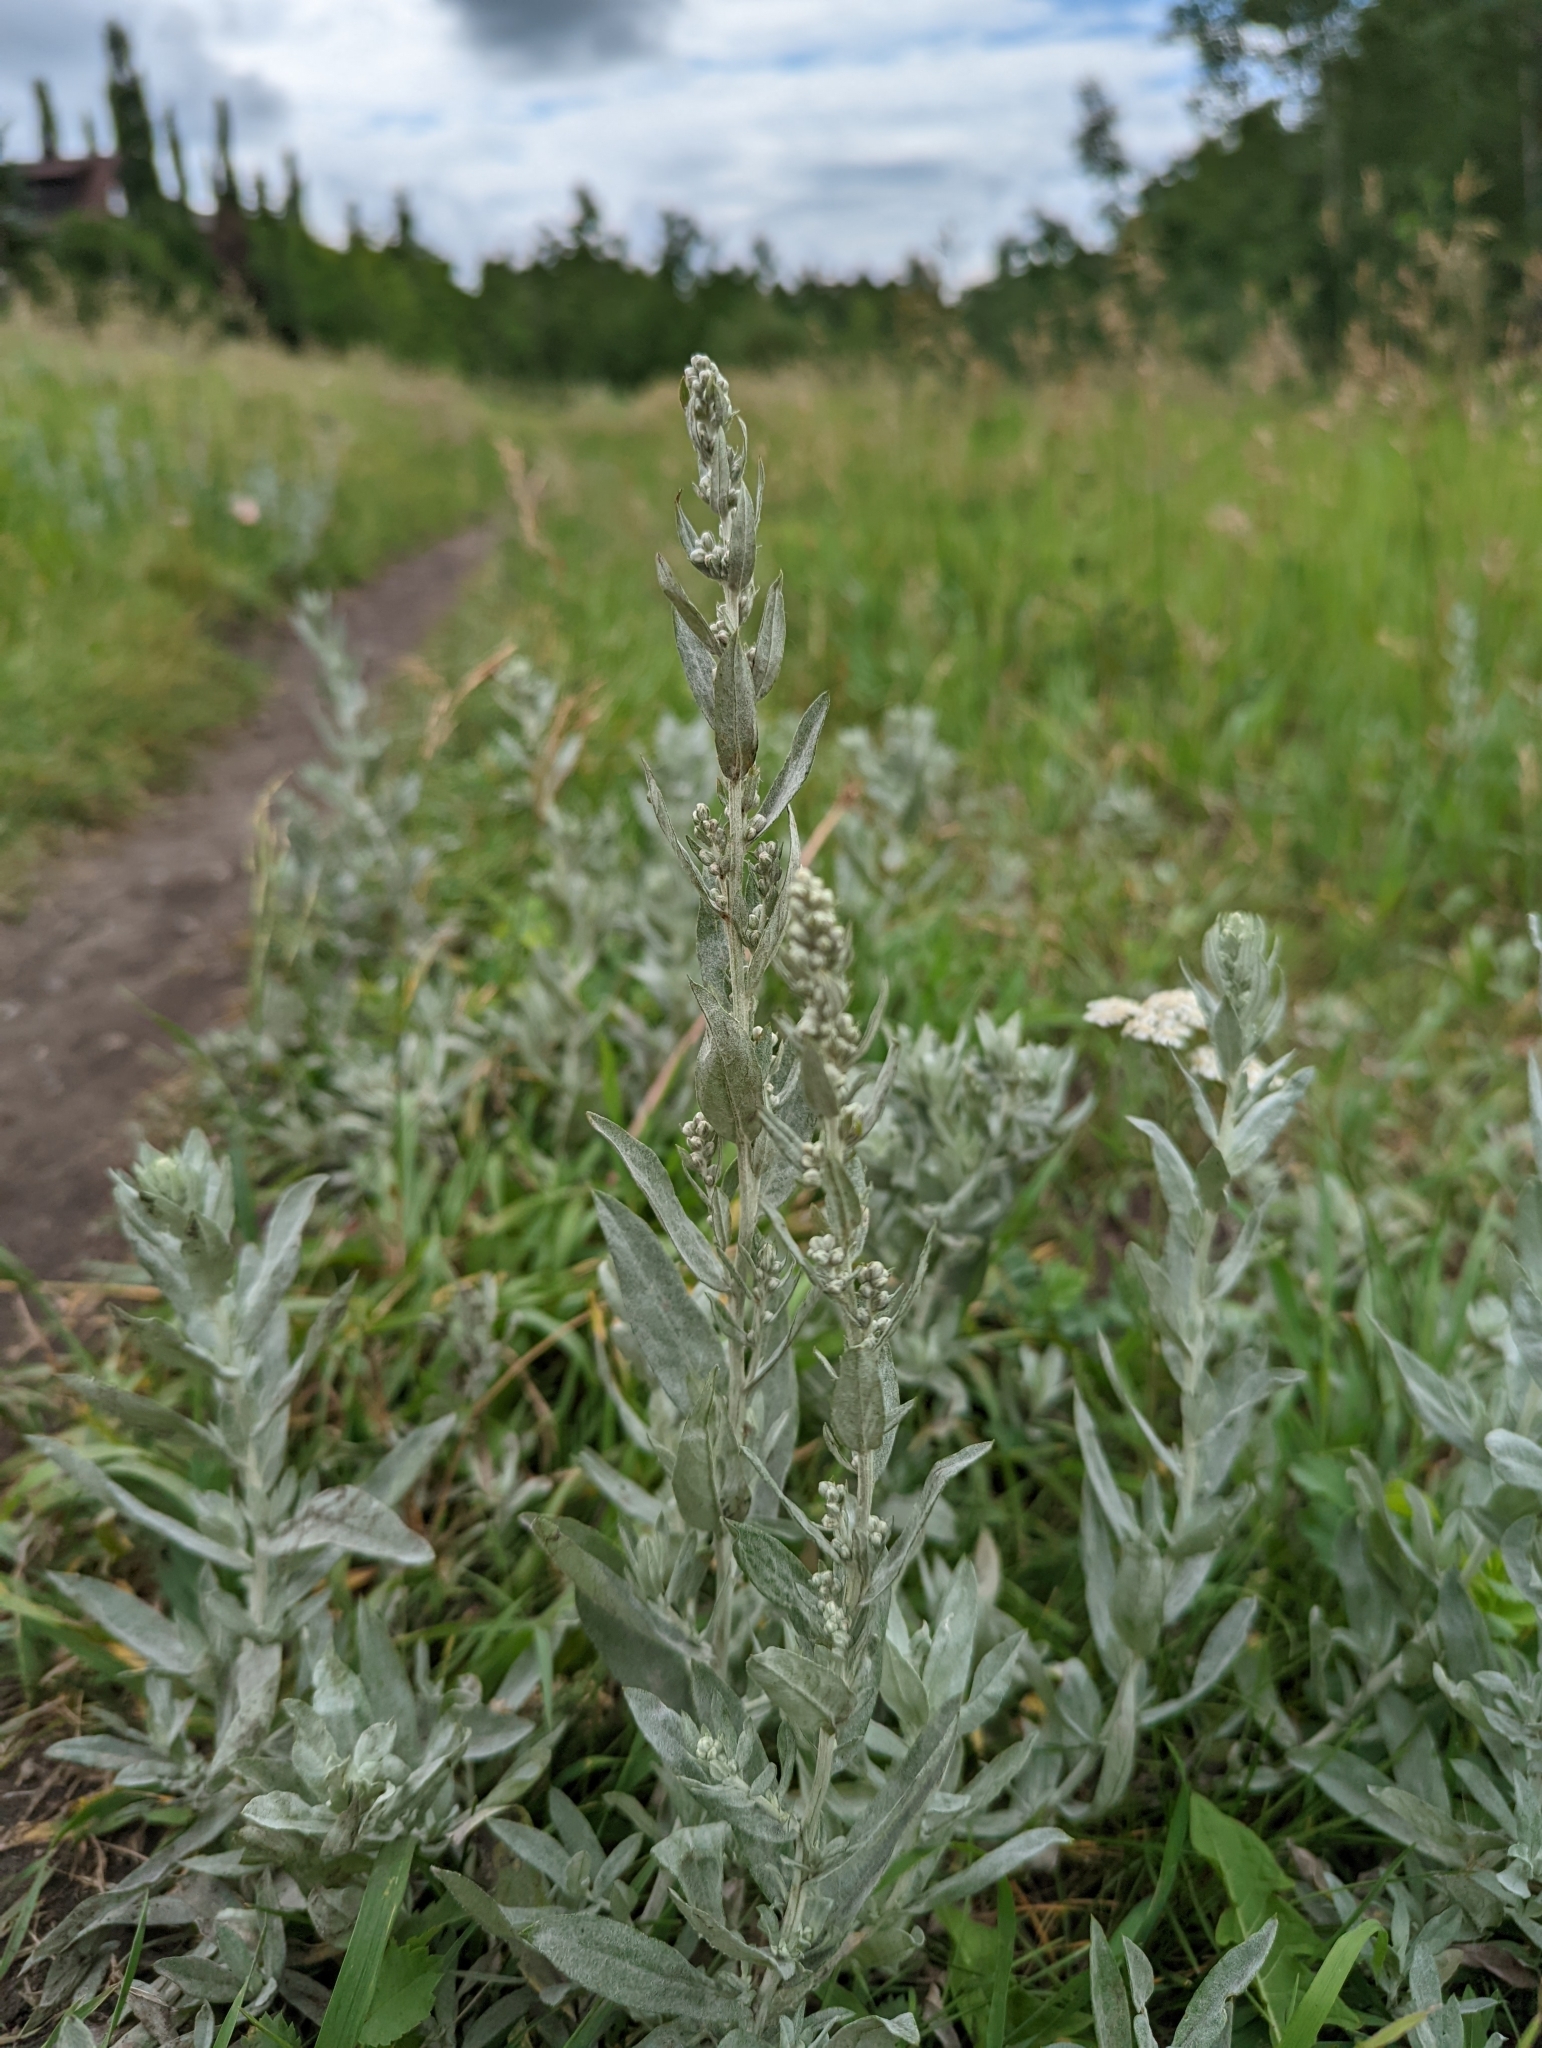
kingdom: Plantae
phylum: Tracheophyta
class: Magnoliopsida
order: Asterales
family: Asteraceae
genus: Artemisia
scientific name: Artemisia ludoviciana
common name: Western mugwort
